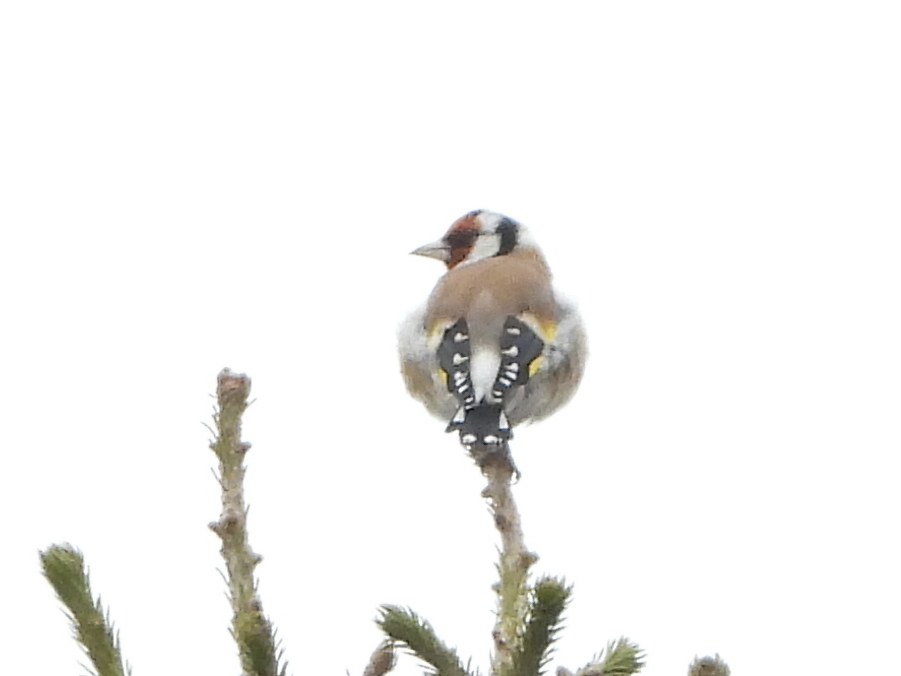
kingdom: Animalia
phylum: Chordata
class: Aves
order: Passeriformes
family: Fringillidae
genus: Carduelis
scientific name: Carduelis carduelis
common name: European goldfinch
